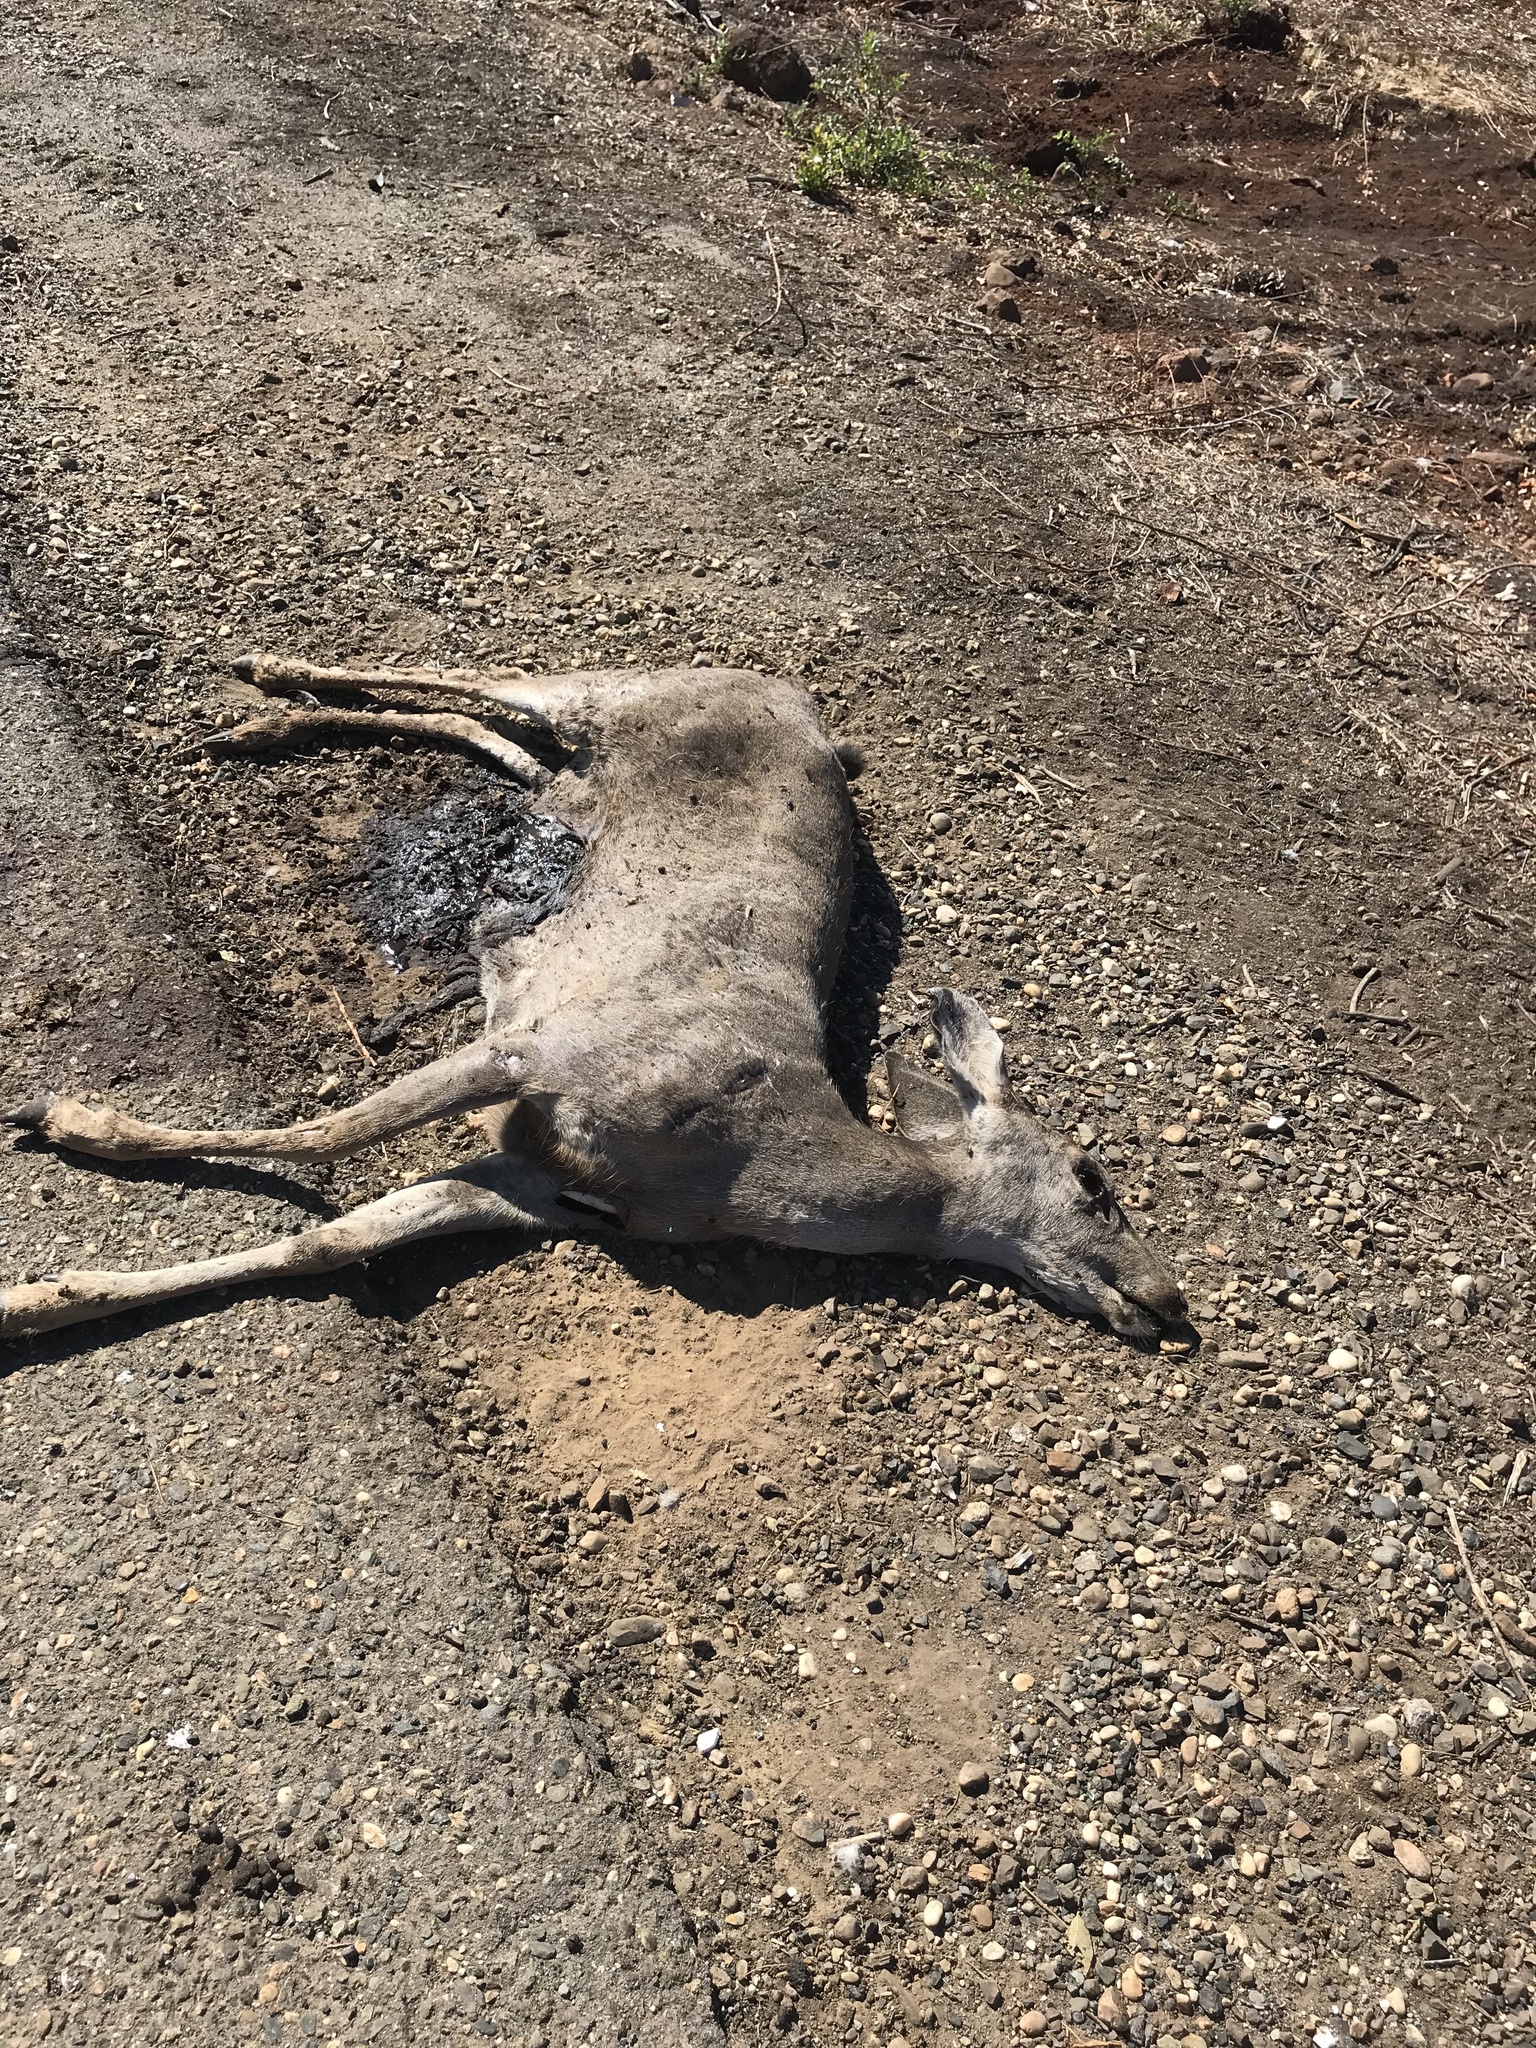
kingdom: Animalia
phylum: Chordata
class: Mammalia
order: Artiodactyla
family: Cervidae
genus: Odocoileus
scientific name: Odocoileus hemionus
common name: Mule deer
